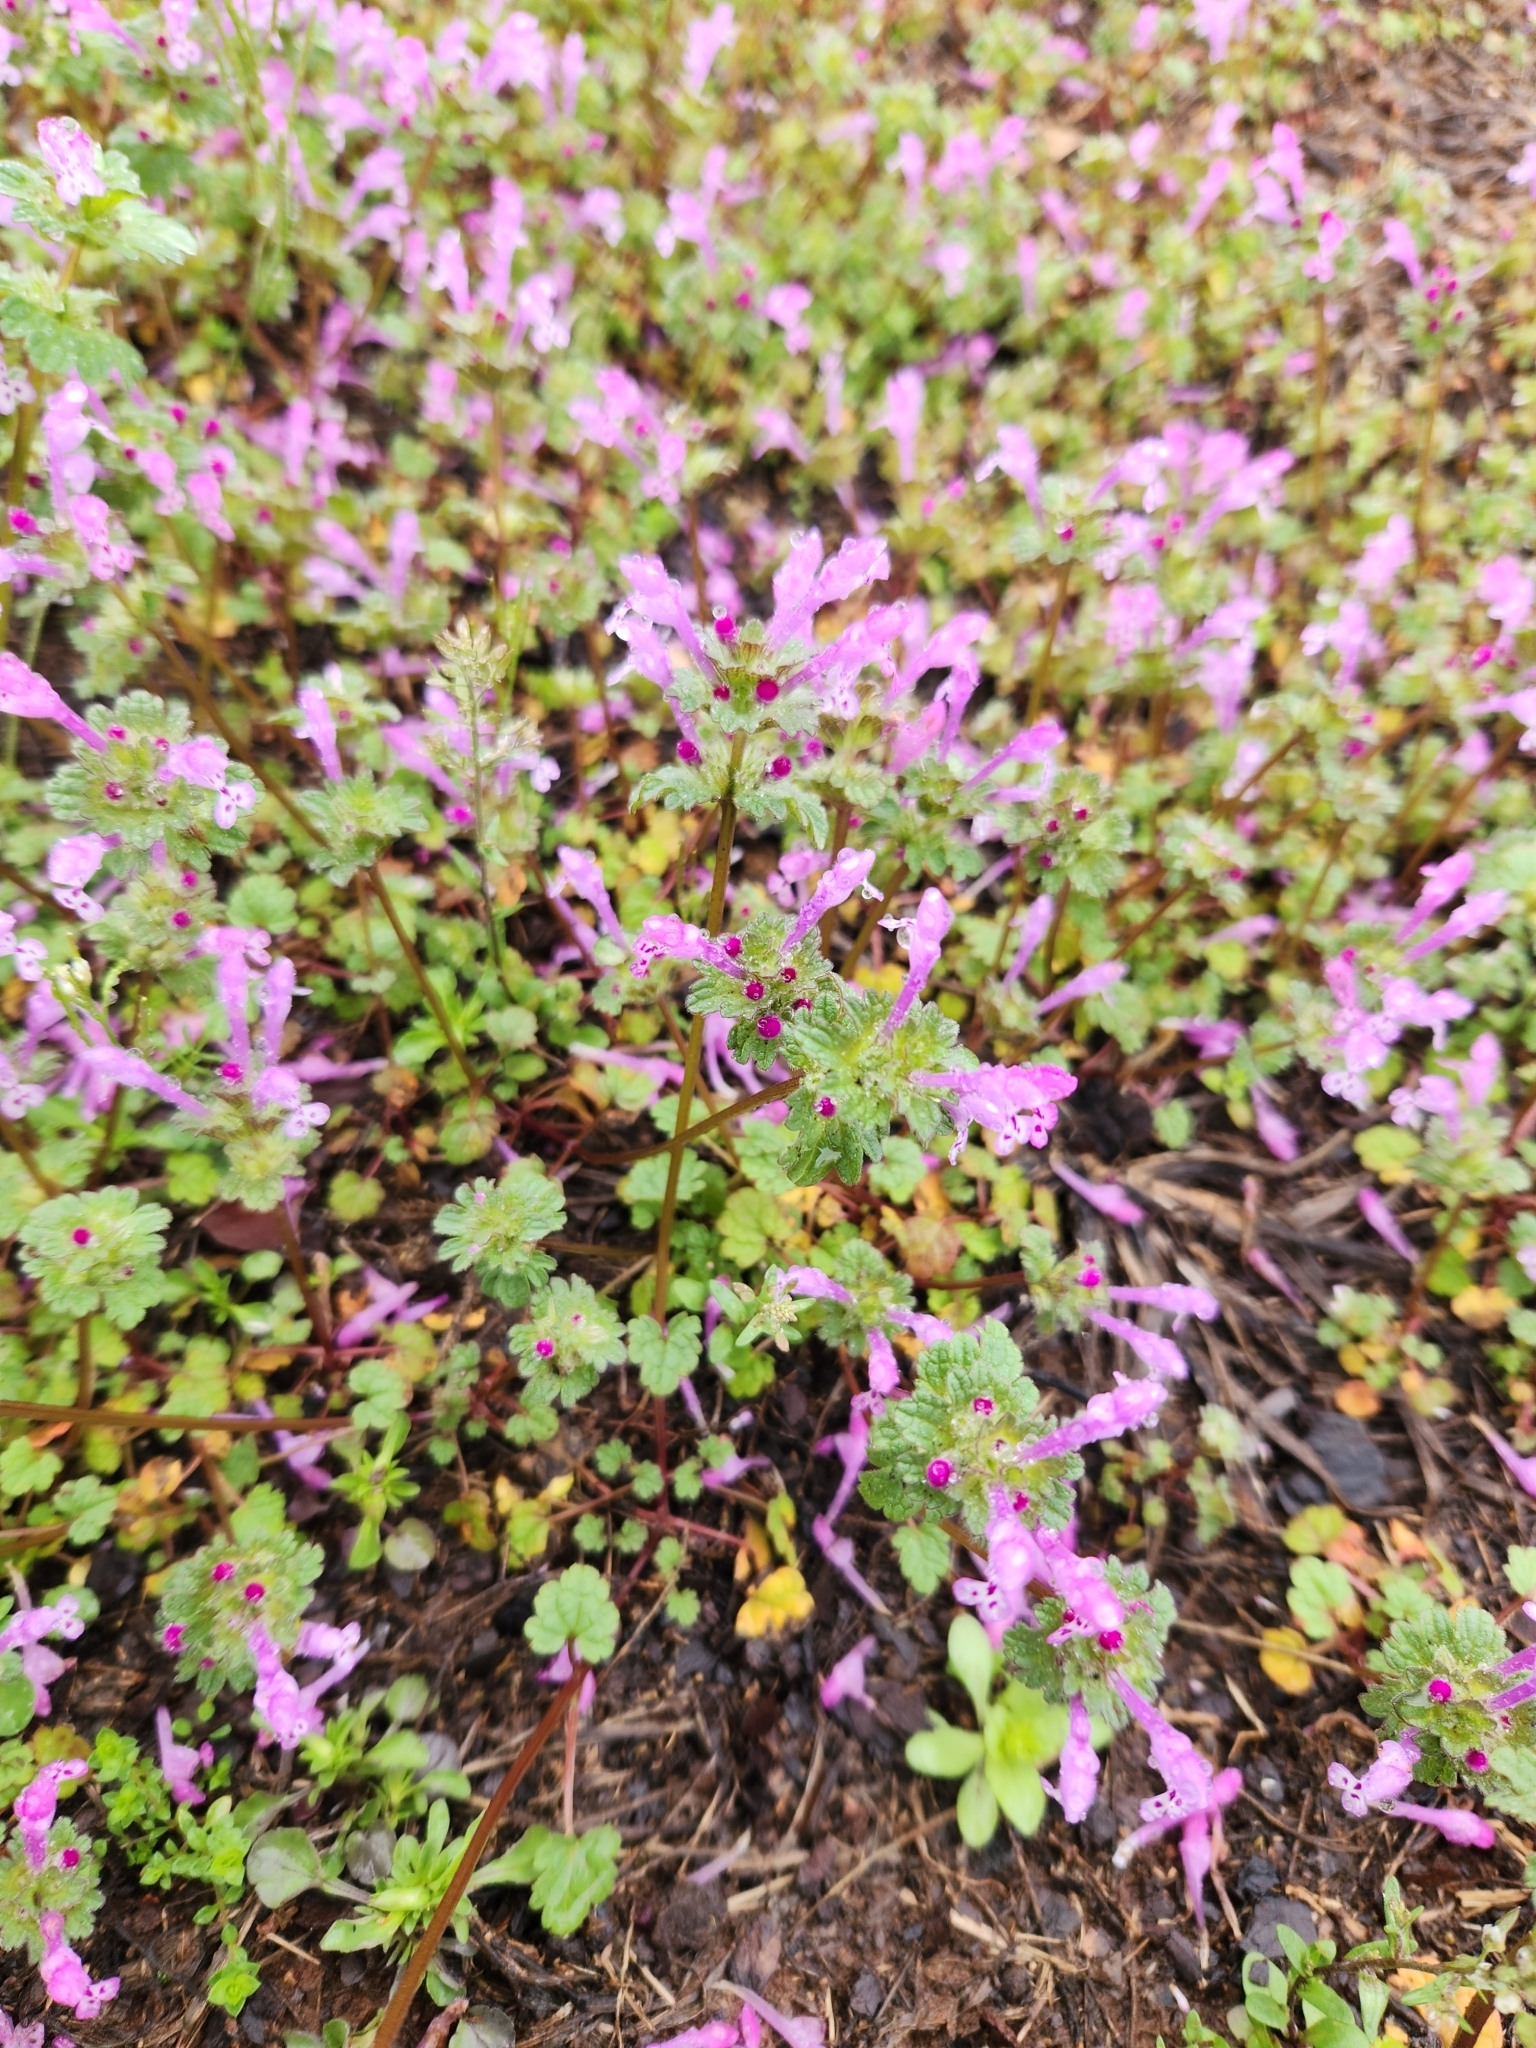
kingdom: Plantae
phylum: Tracheophyta
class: Magnoliopsida
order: Lamiales
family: Lamiaceae
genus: Lamium
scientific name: Lamium amplexicaule
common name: Henbit dead-nettle
